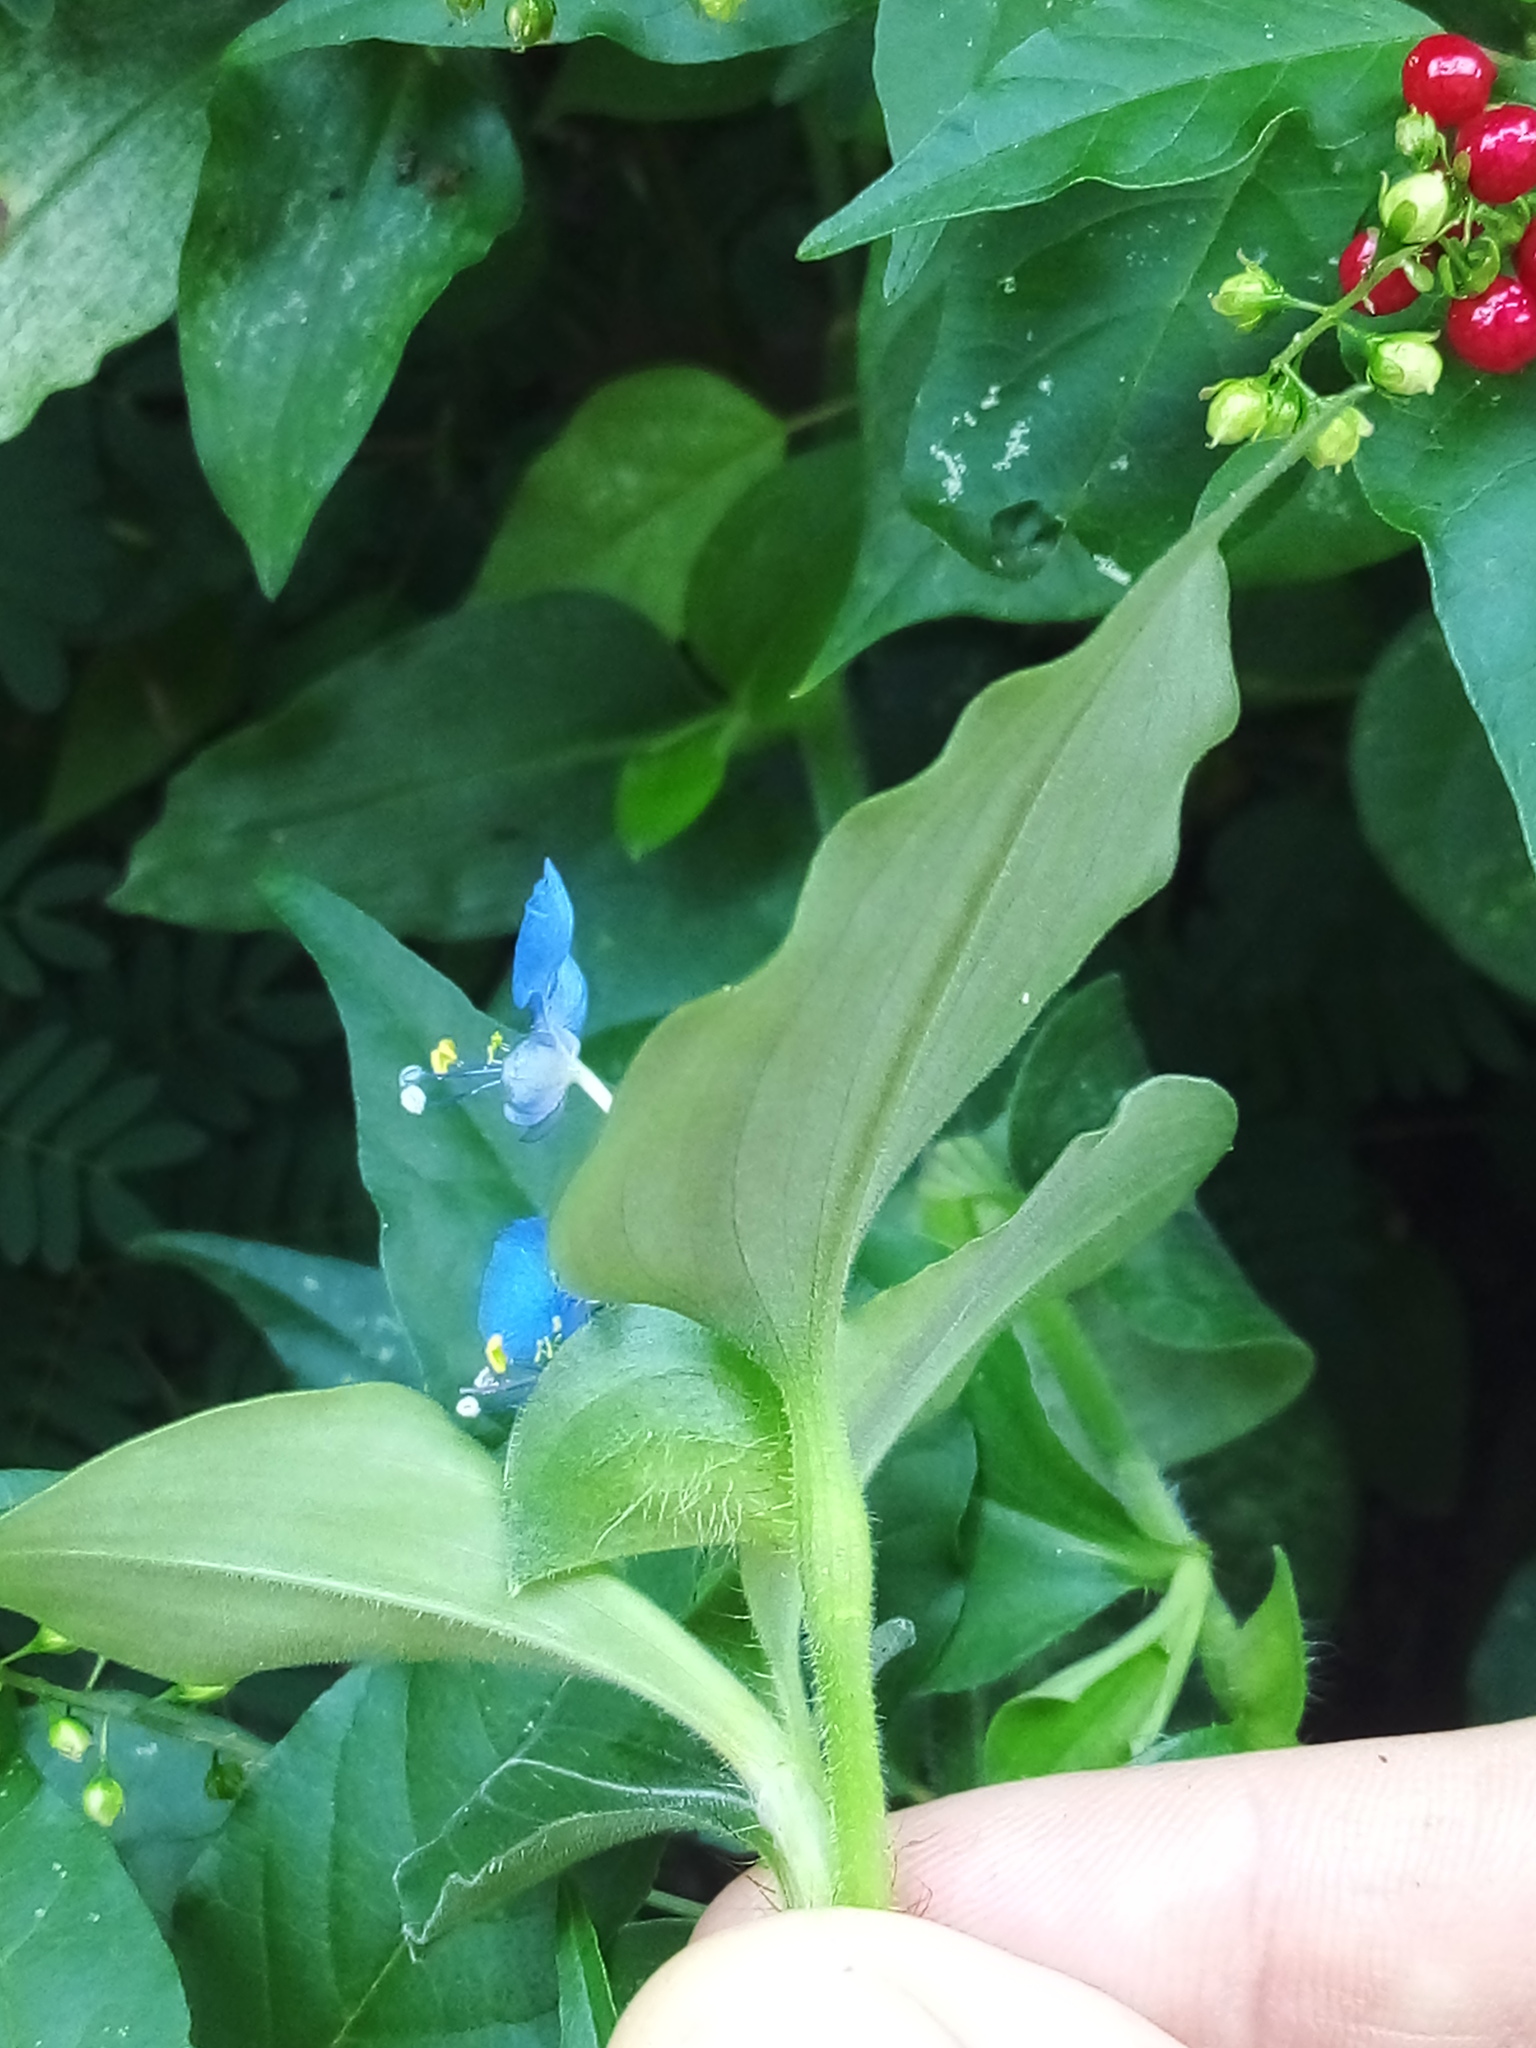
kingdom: Plantae
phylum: Tracheophyta
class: Liliopsida
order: Commelinales
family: Commelinaceae
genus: Commelina
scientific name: Commelina benghalensis
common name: Jio
